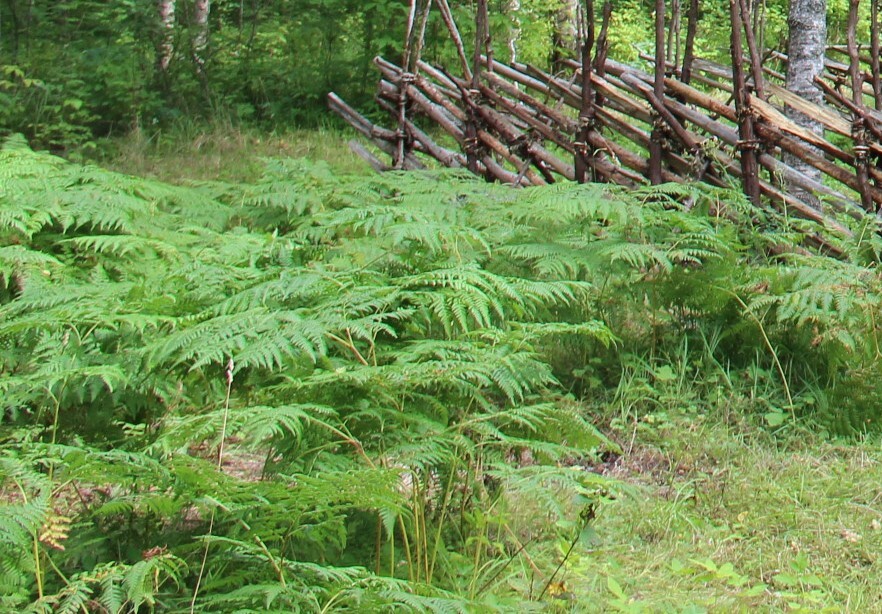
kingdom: Plantae
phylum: Tracheophyta
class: Polypodiopsida
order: Polypodiales
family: Dennstaedtiaceae
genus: Pteridium
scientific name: Pteridium aquilinum
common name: Bracken
